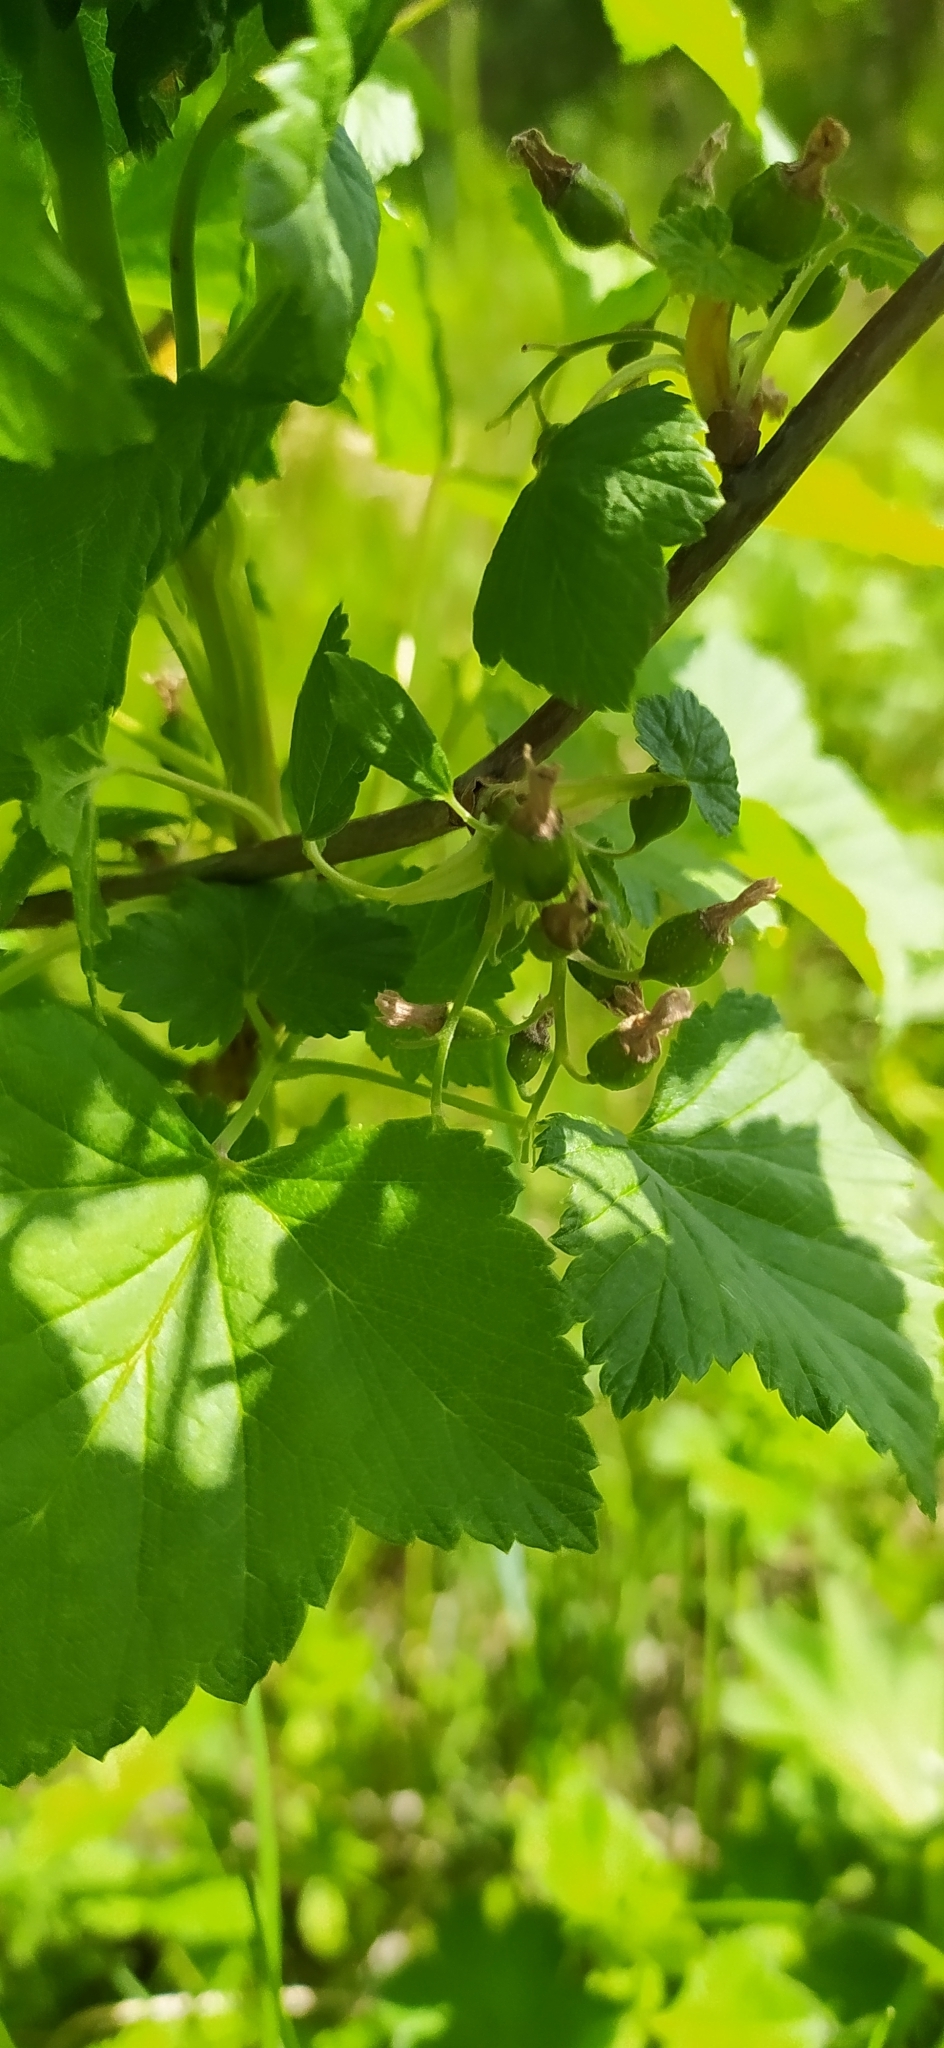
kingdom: Plantae
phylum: Tracheophyta
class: Magnoliopsida
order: Saxifragales
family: Grossulariaceae
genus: Ribes
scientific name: Ribes nigrum
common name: Black currant
